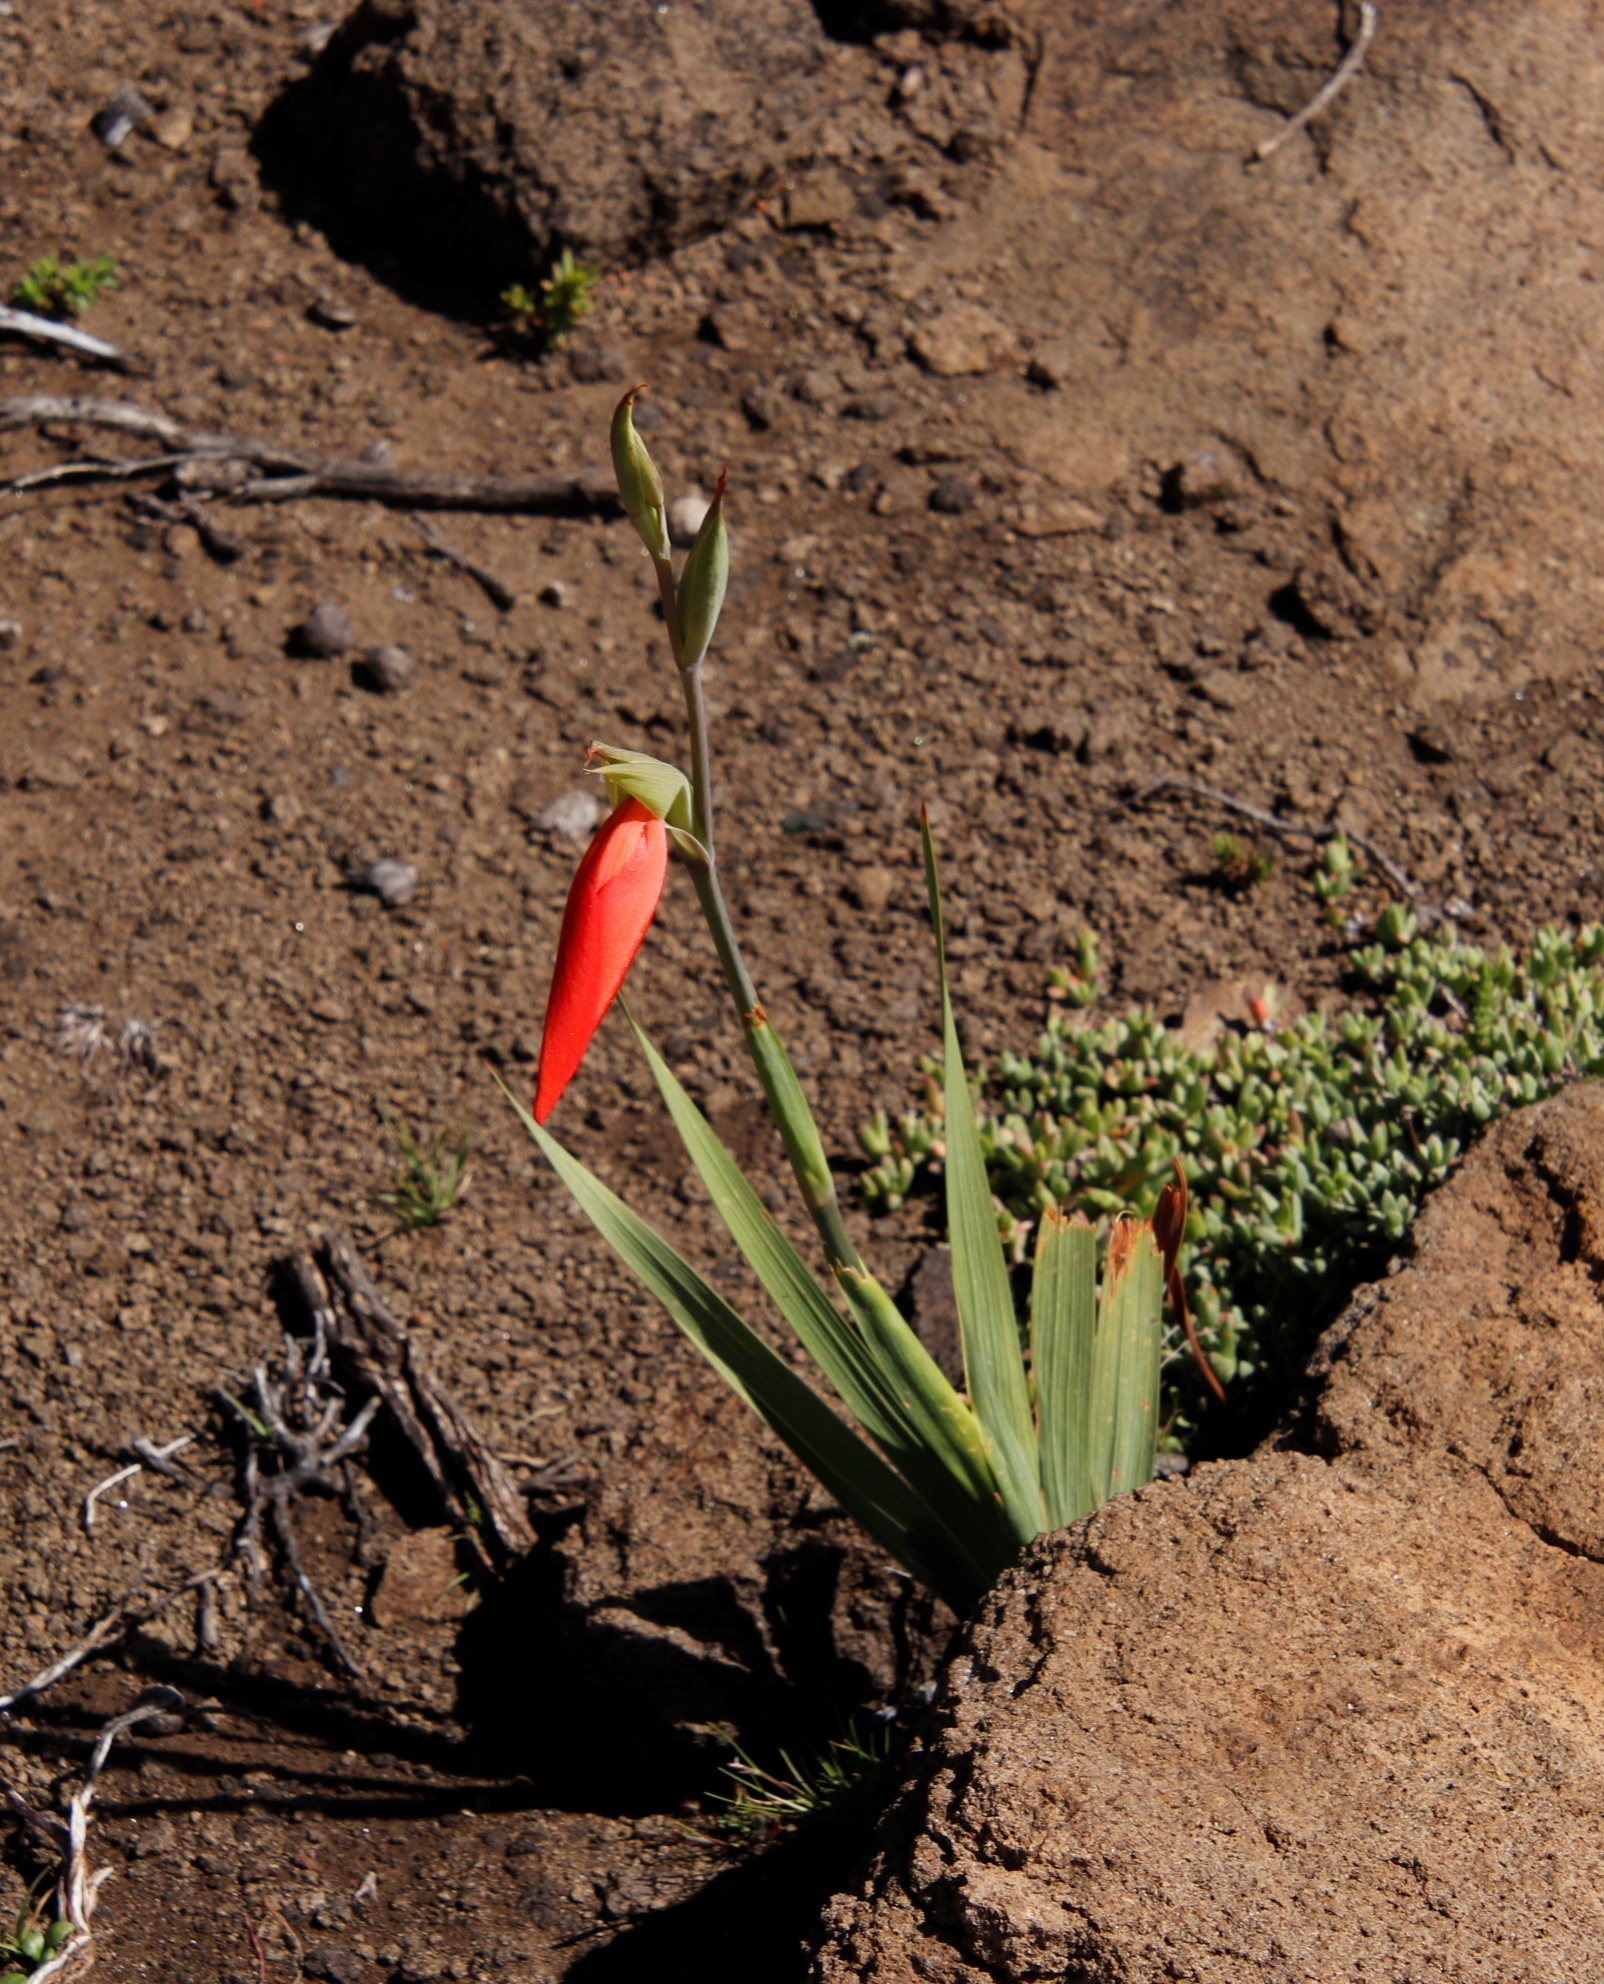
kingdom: Plantae
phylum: Tracheophyta
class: Liliopsida
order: Asparagales
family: Iridaceae
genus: Gladiolus
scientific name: Gladiolus saundersii
